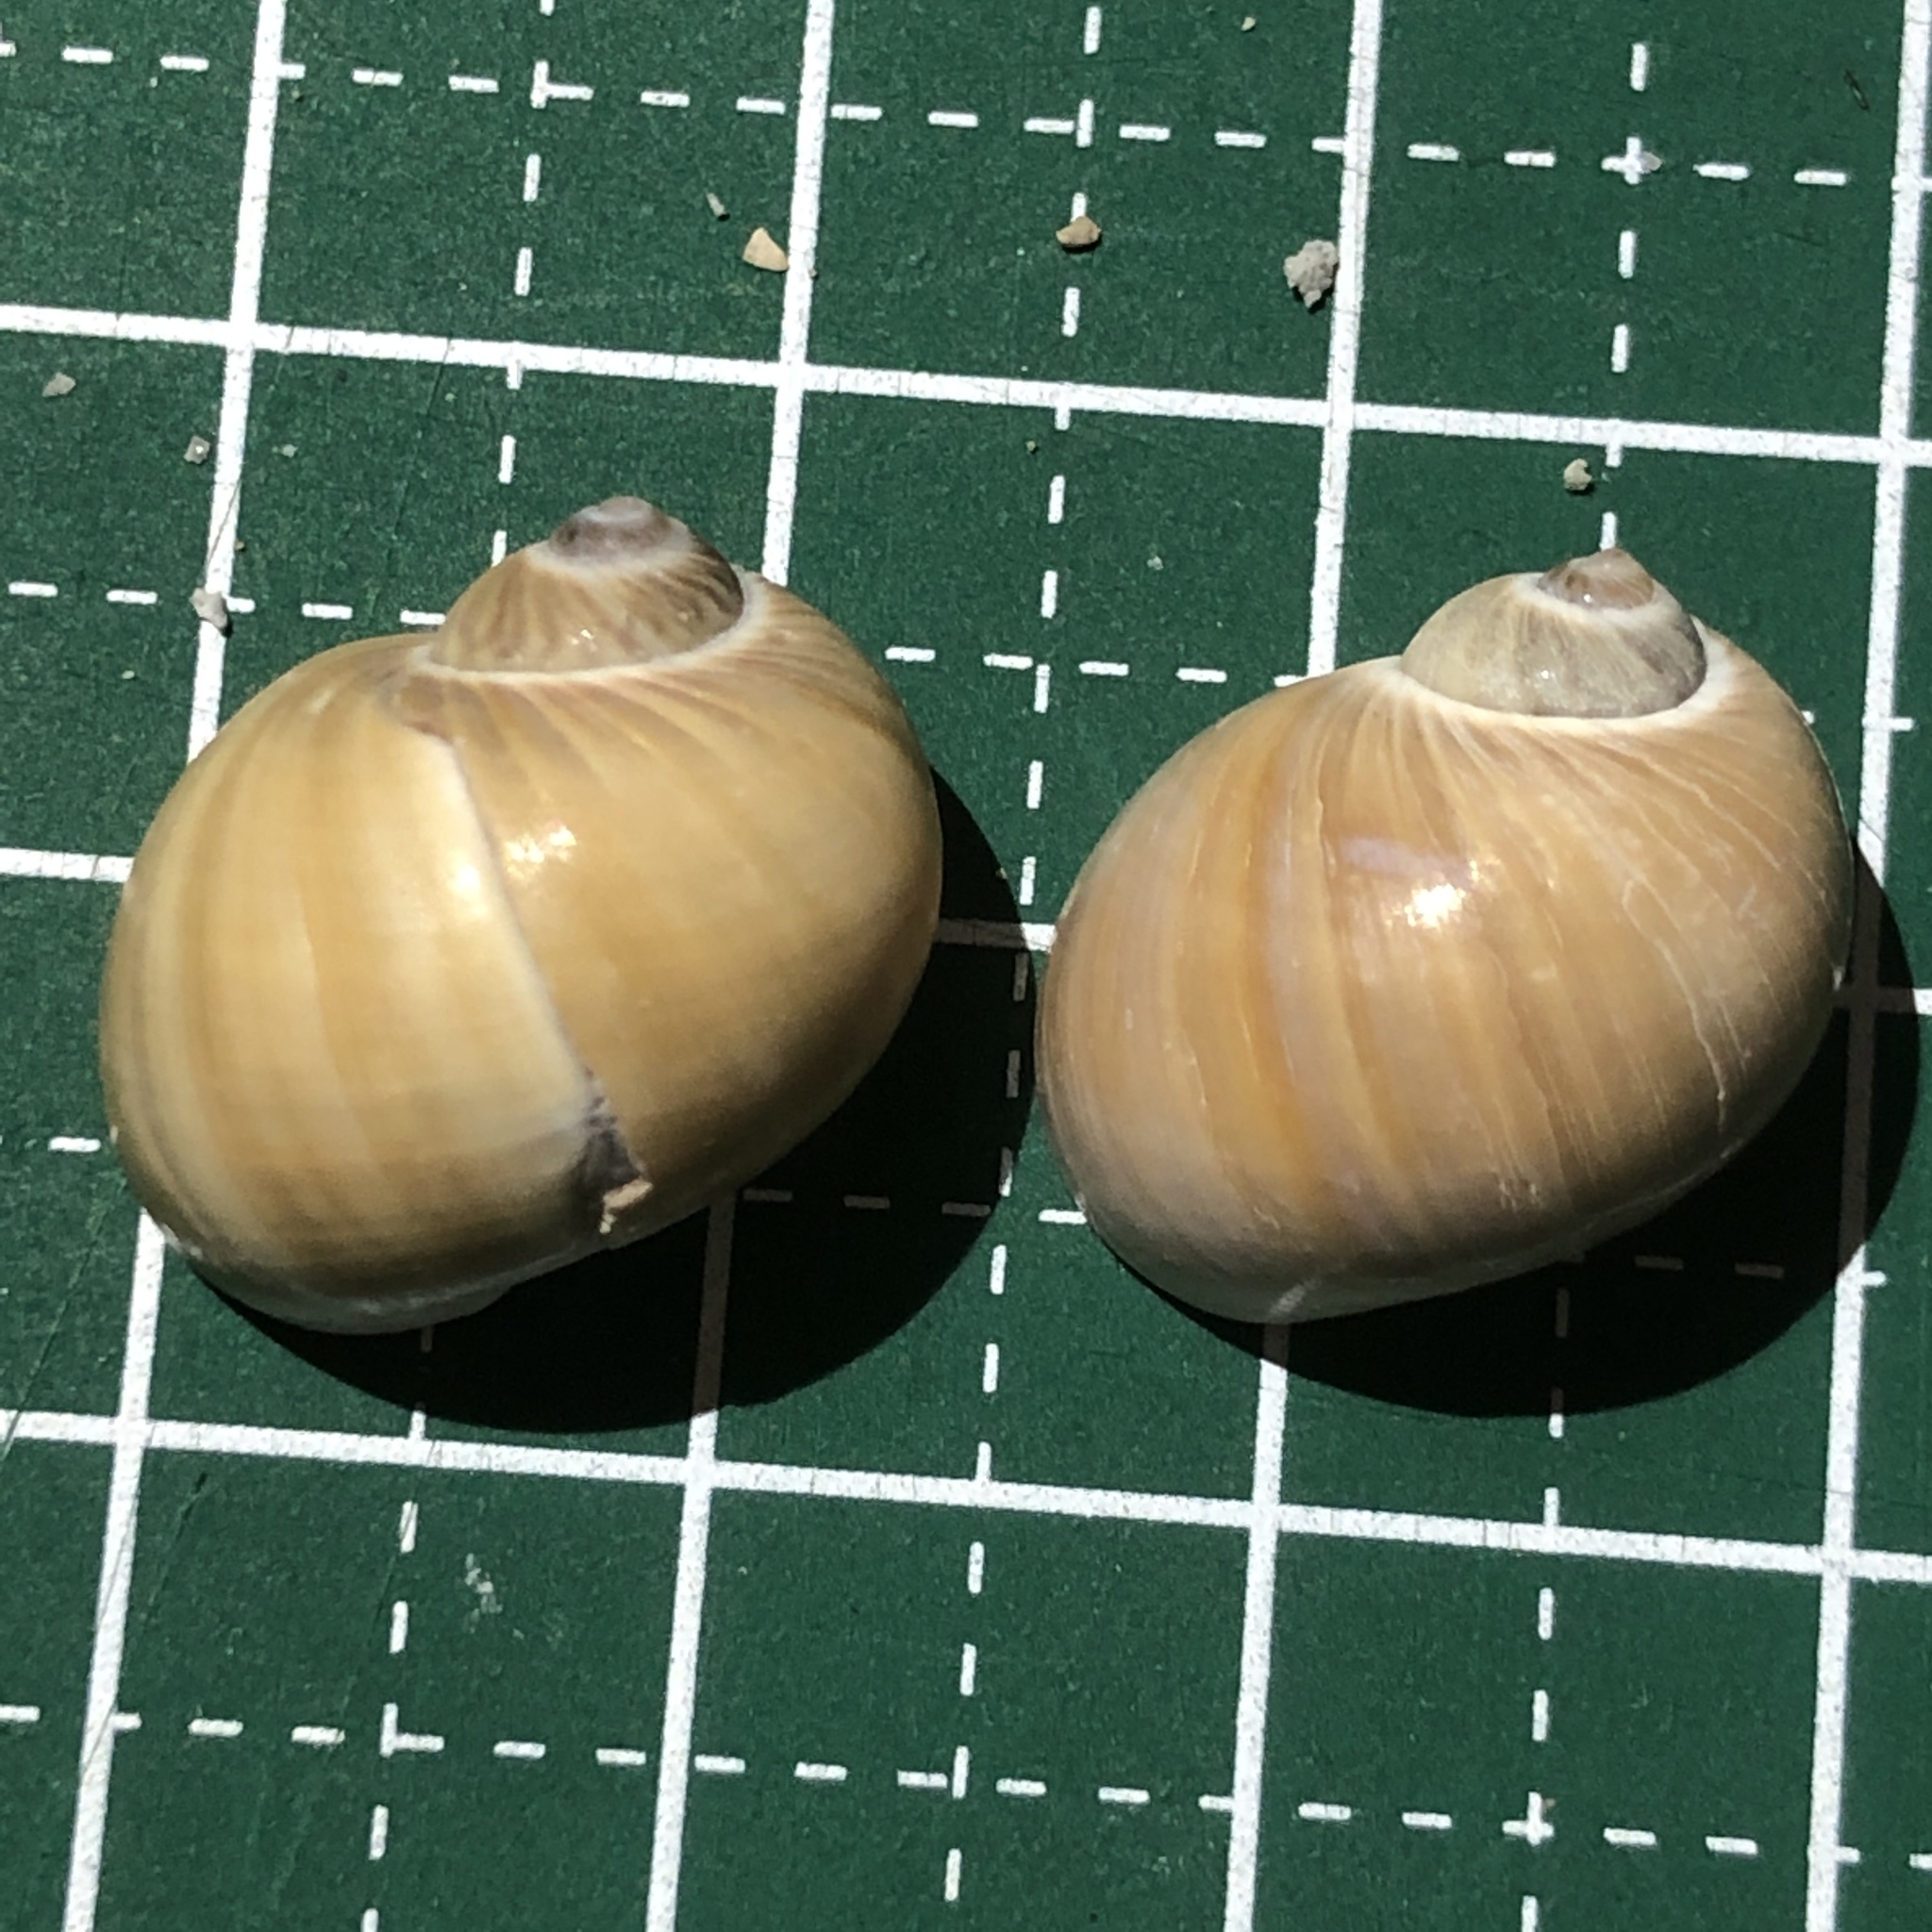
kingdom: Animalia
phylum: Mollusca
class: Gastropoda
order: Littorinimorpha
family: Naticidae
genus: Notocochlis
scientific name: Notocochlis gualteriana
